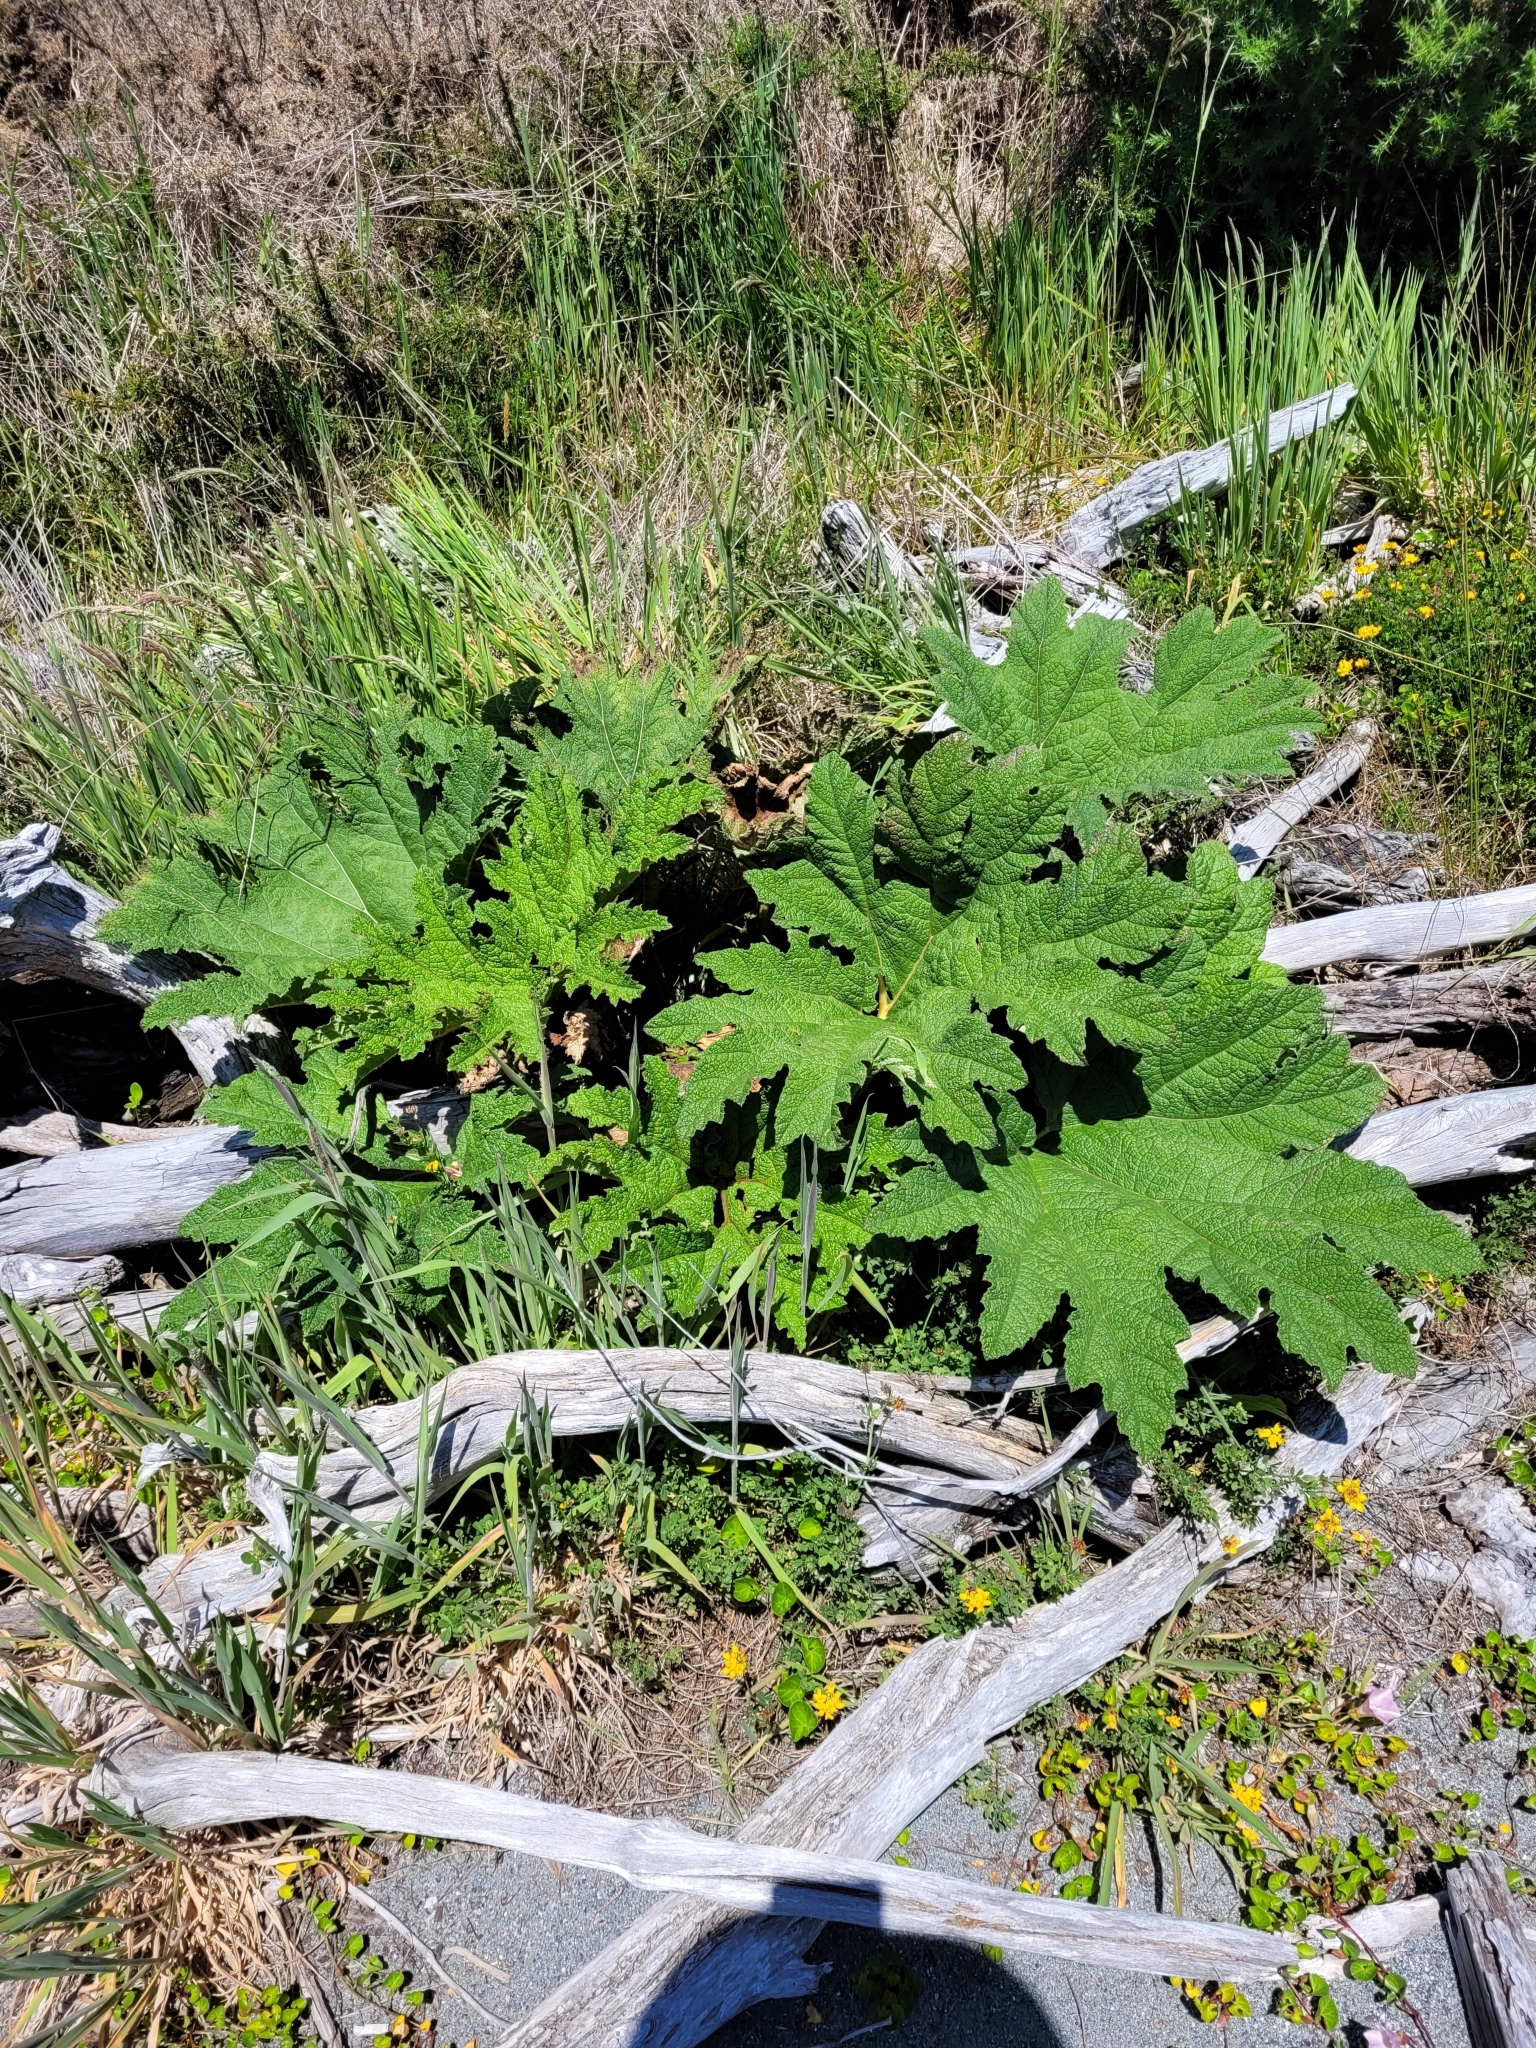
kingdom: Plantae
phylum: Tracheophyta
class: Magnoliopsida
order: Gunnerales
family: Gunneraceae
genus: Gunnera
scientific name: Gunnera tinctoria
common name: Giant-rhubarb
